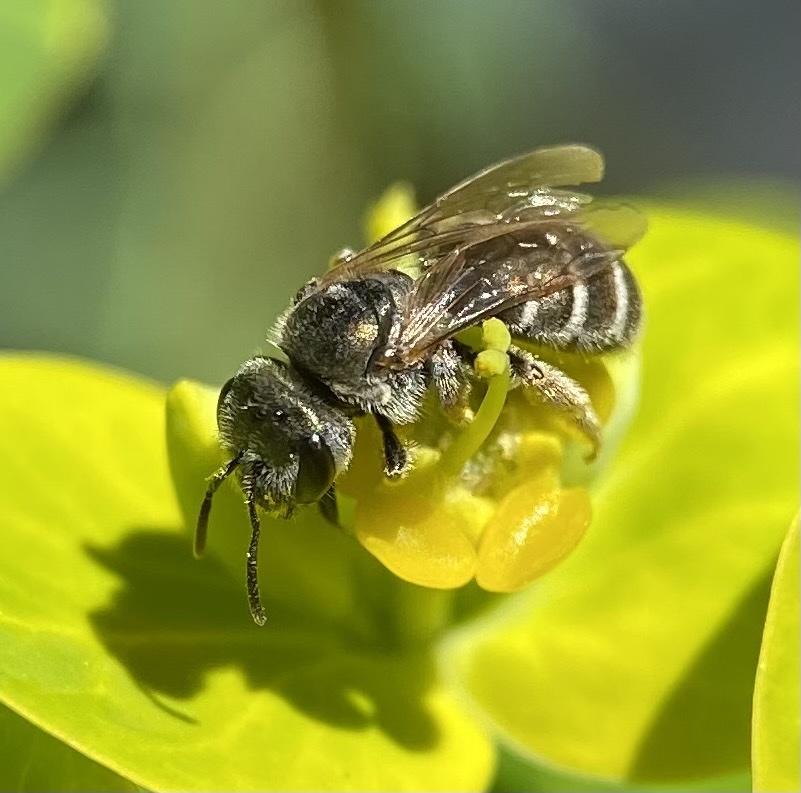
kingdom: Animalia
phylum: Arthropoda
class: Insecta
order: Hymenoptera
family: Halictidae
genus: Halictus
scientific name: Halictus tripartitus
